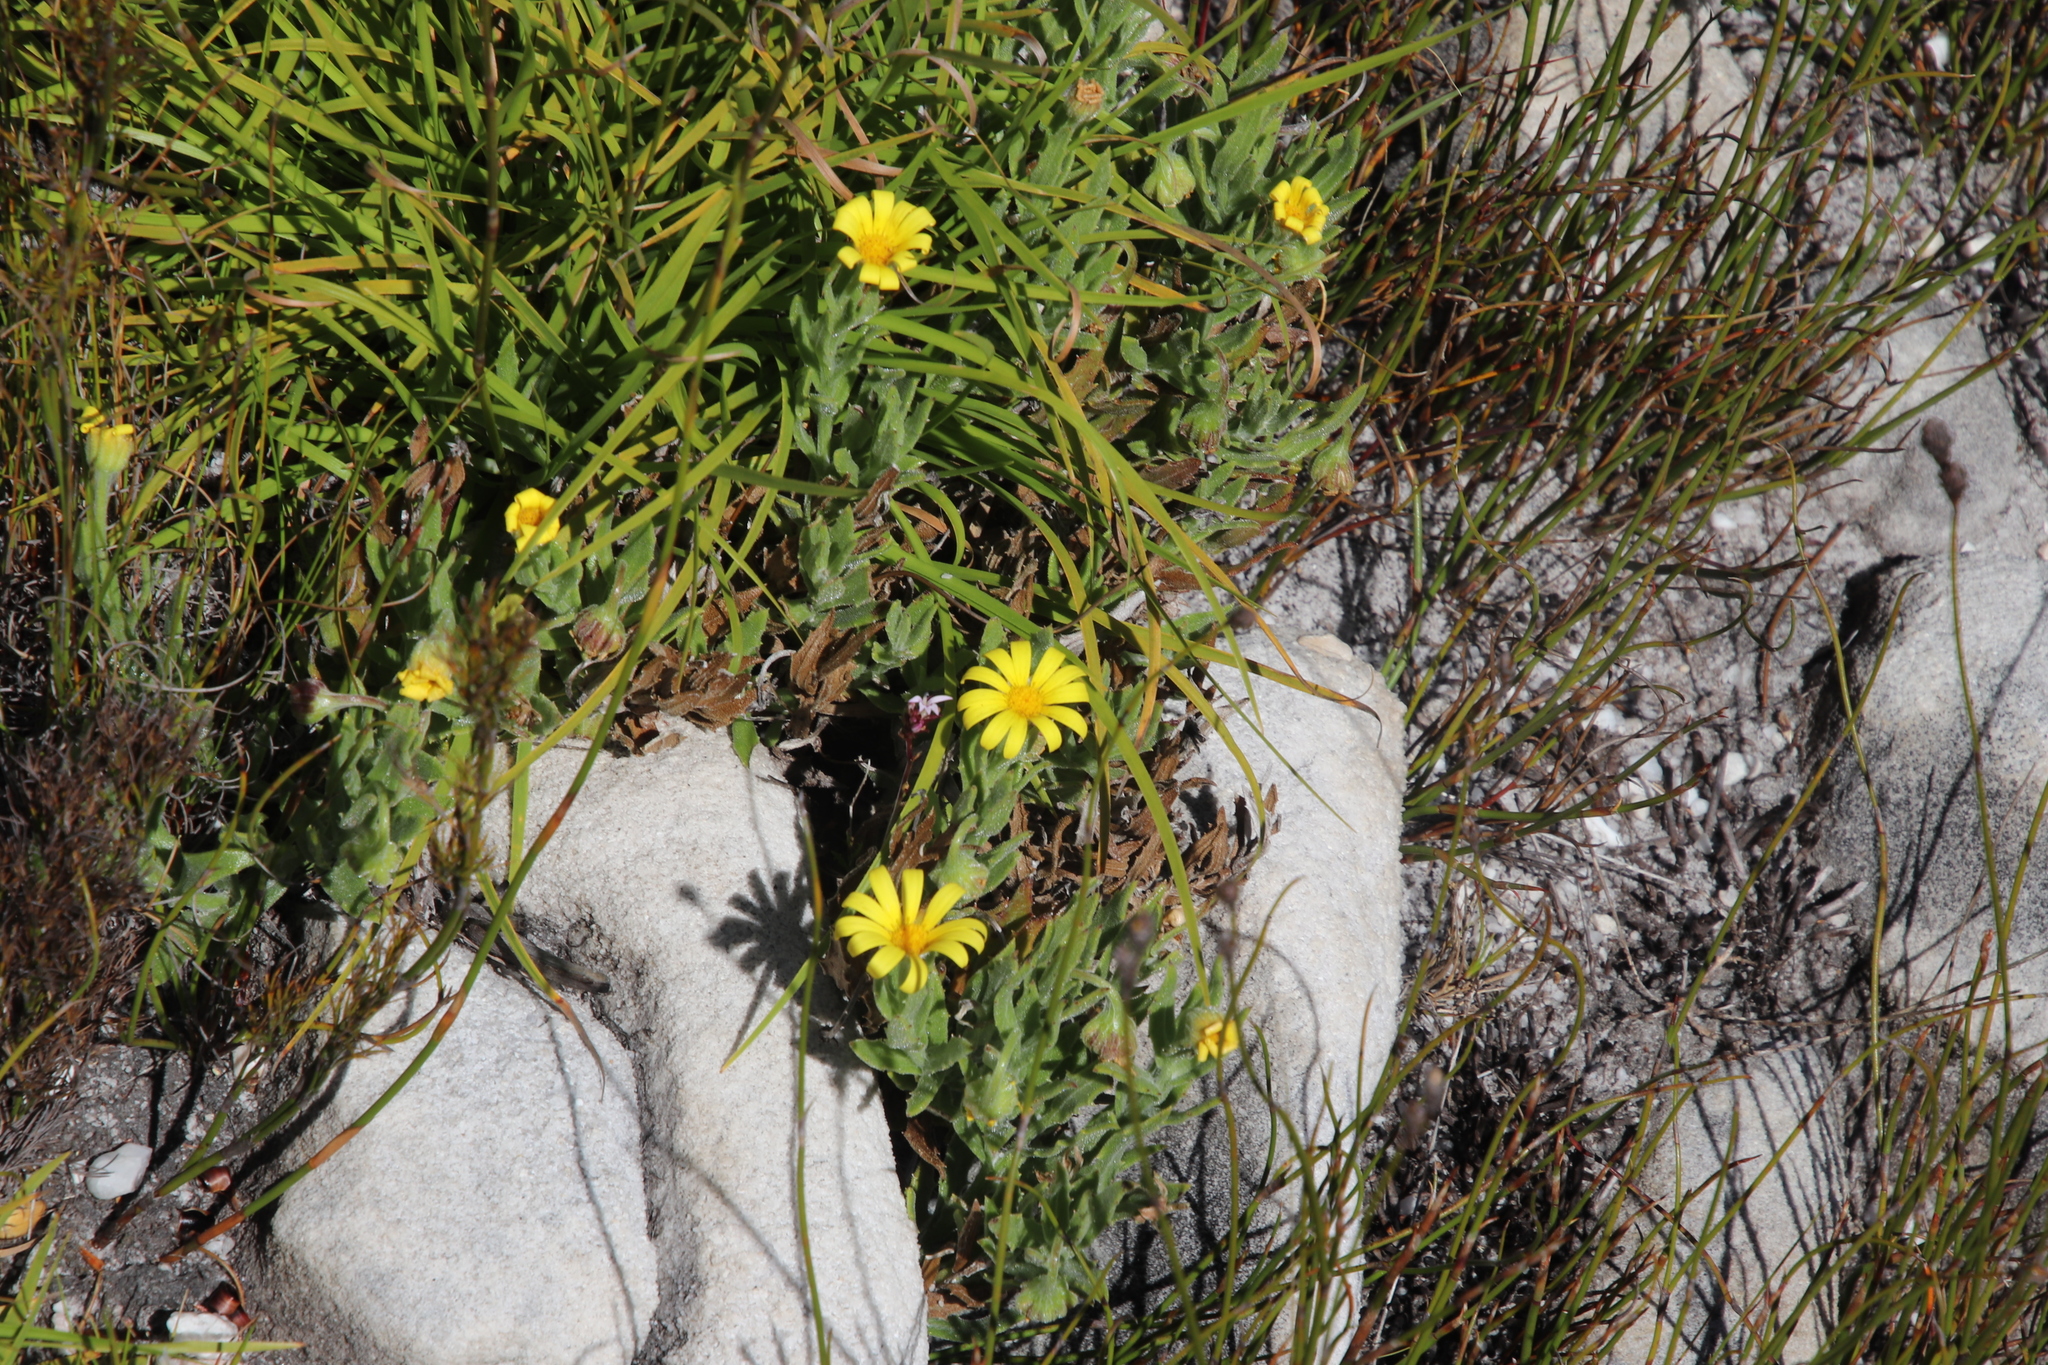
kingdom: Plantae
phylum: Tracheophyta
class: Magnoliopsida
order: Asterales
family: Asteraceae
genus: Osteospermum
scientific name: Osteospermum ilicifolium
